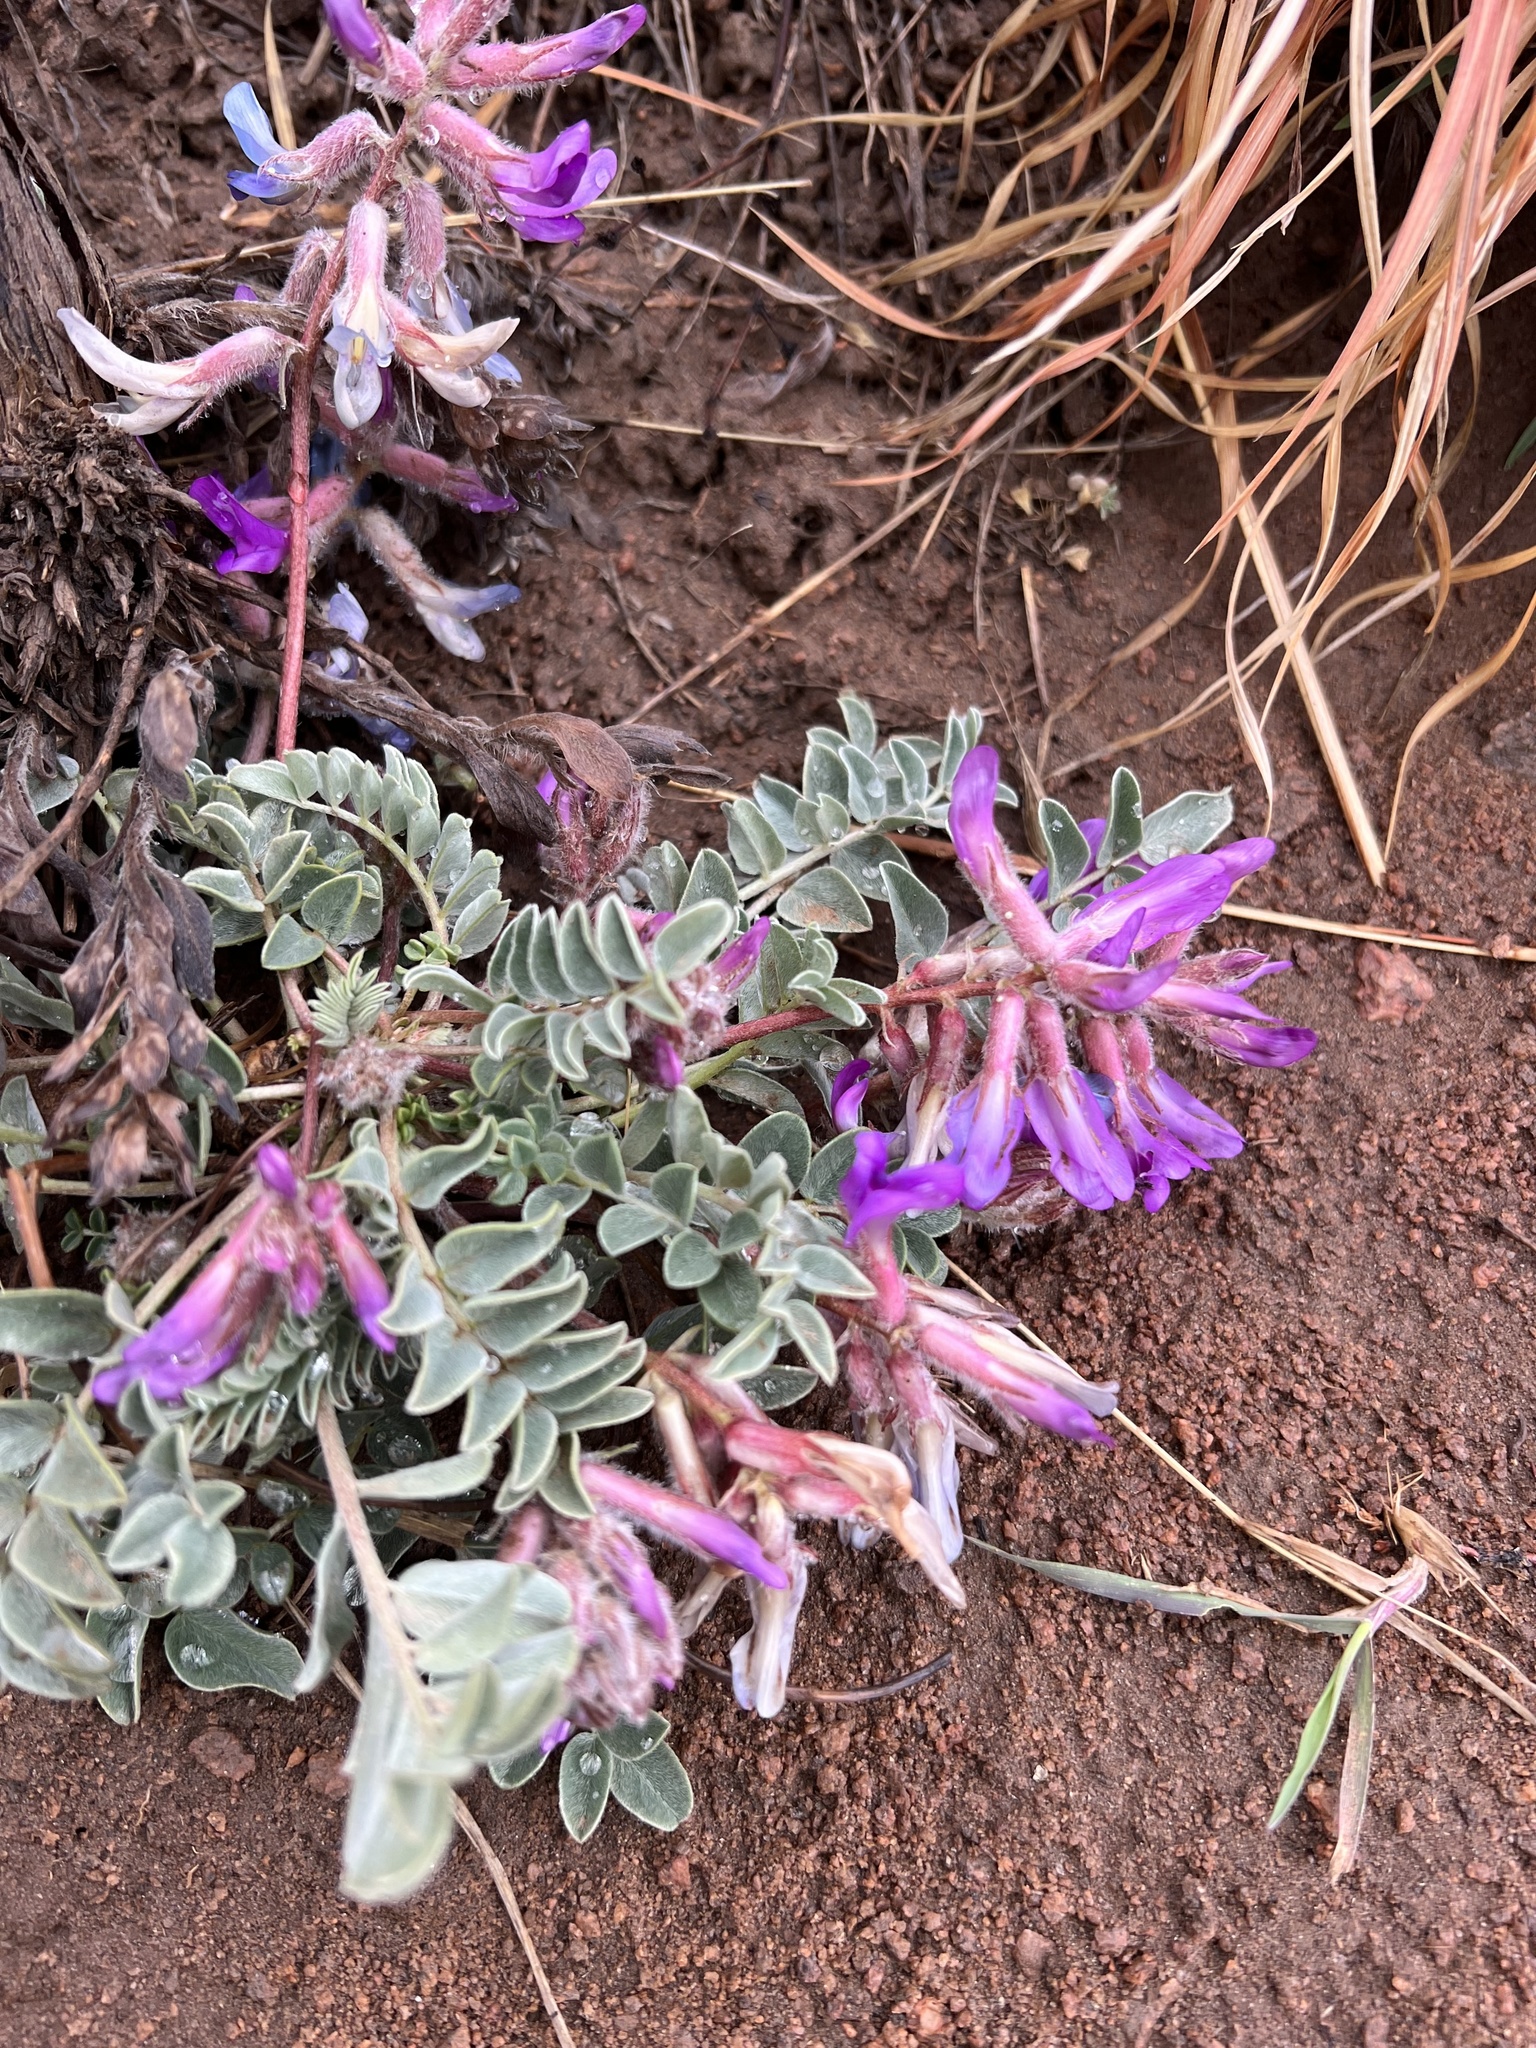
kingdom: Plantae
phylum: Tracheophyta
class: Magnoliopsida
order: Fabales
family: Fabaceae
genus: Astragalus
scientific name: Astragalus shortianus
